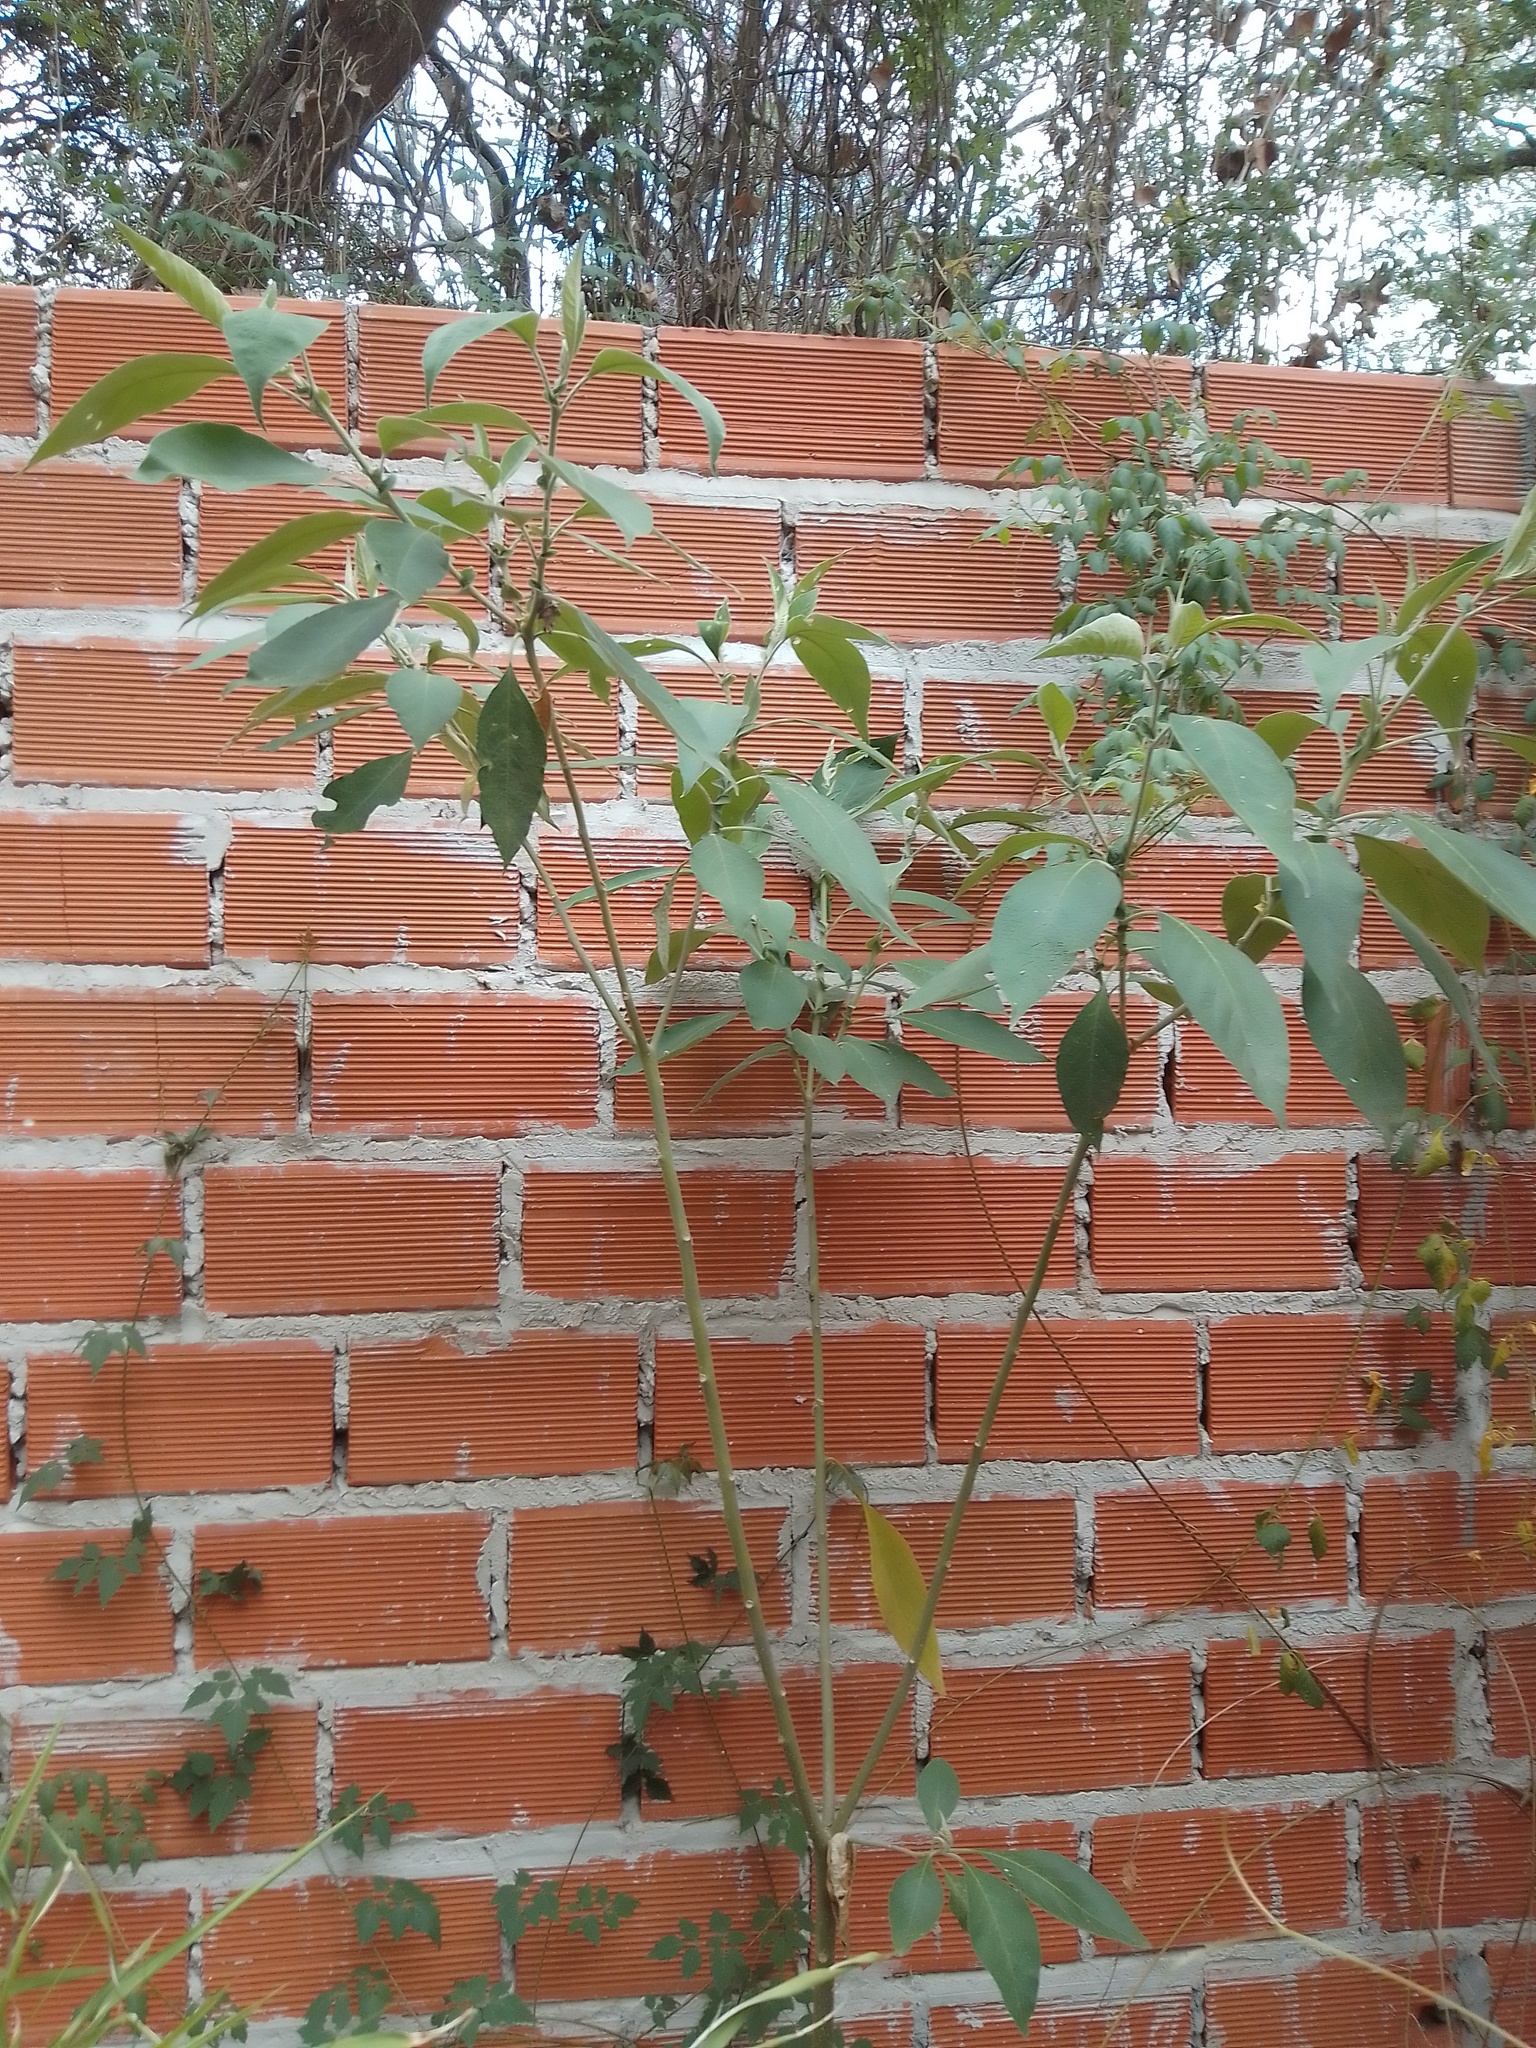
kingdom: Plantae
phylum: Tracheophyta
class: Magnoliopsida
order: Solanales
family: Solanaceae
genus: Solanum
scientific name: Solanum granulosoleprosum
